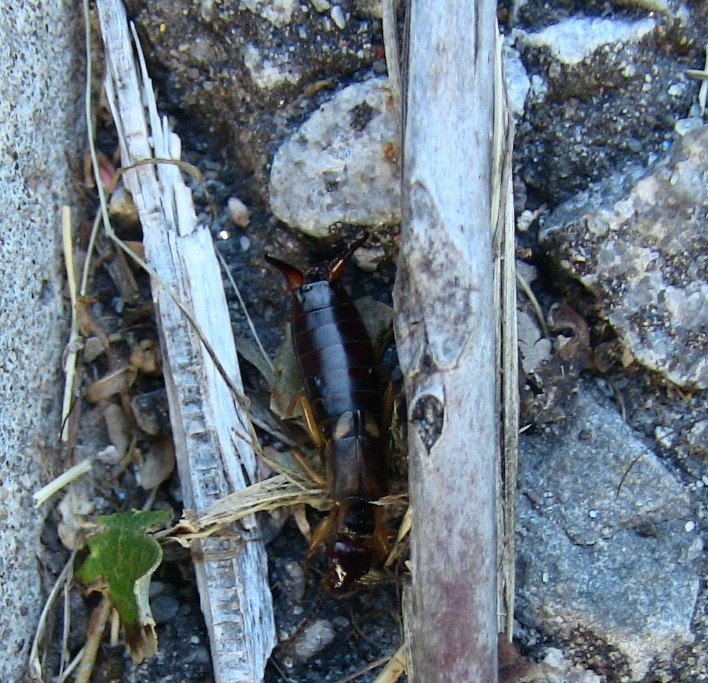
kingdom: Animalia
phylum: Arthropoda
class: Insecta
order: Dermaptera
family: Forficulidae
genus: Forficula
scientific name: Forficula
